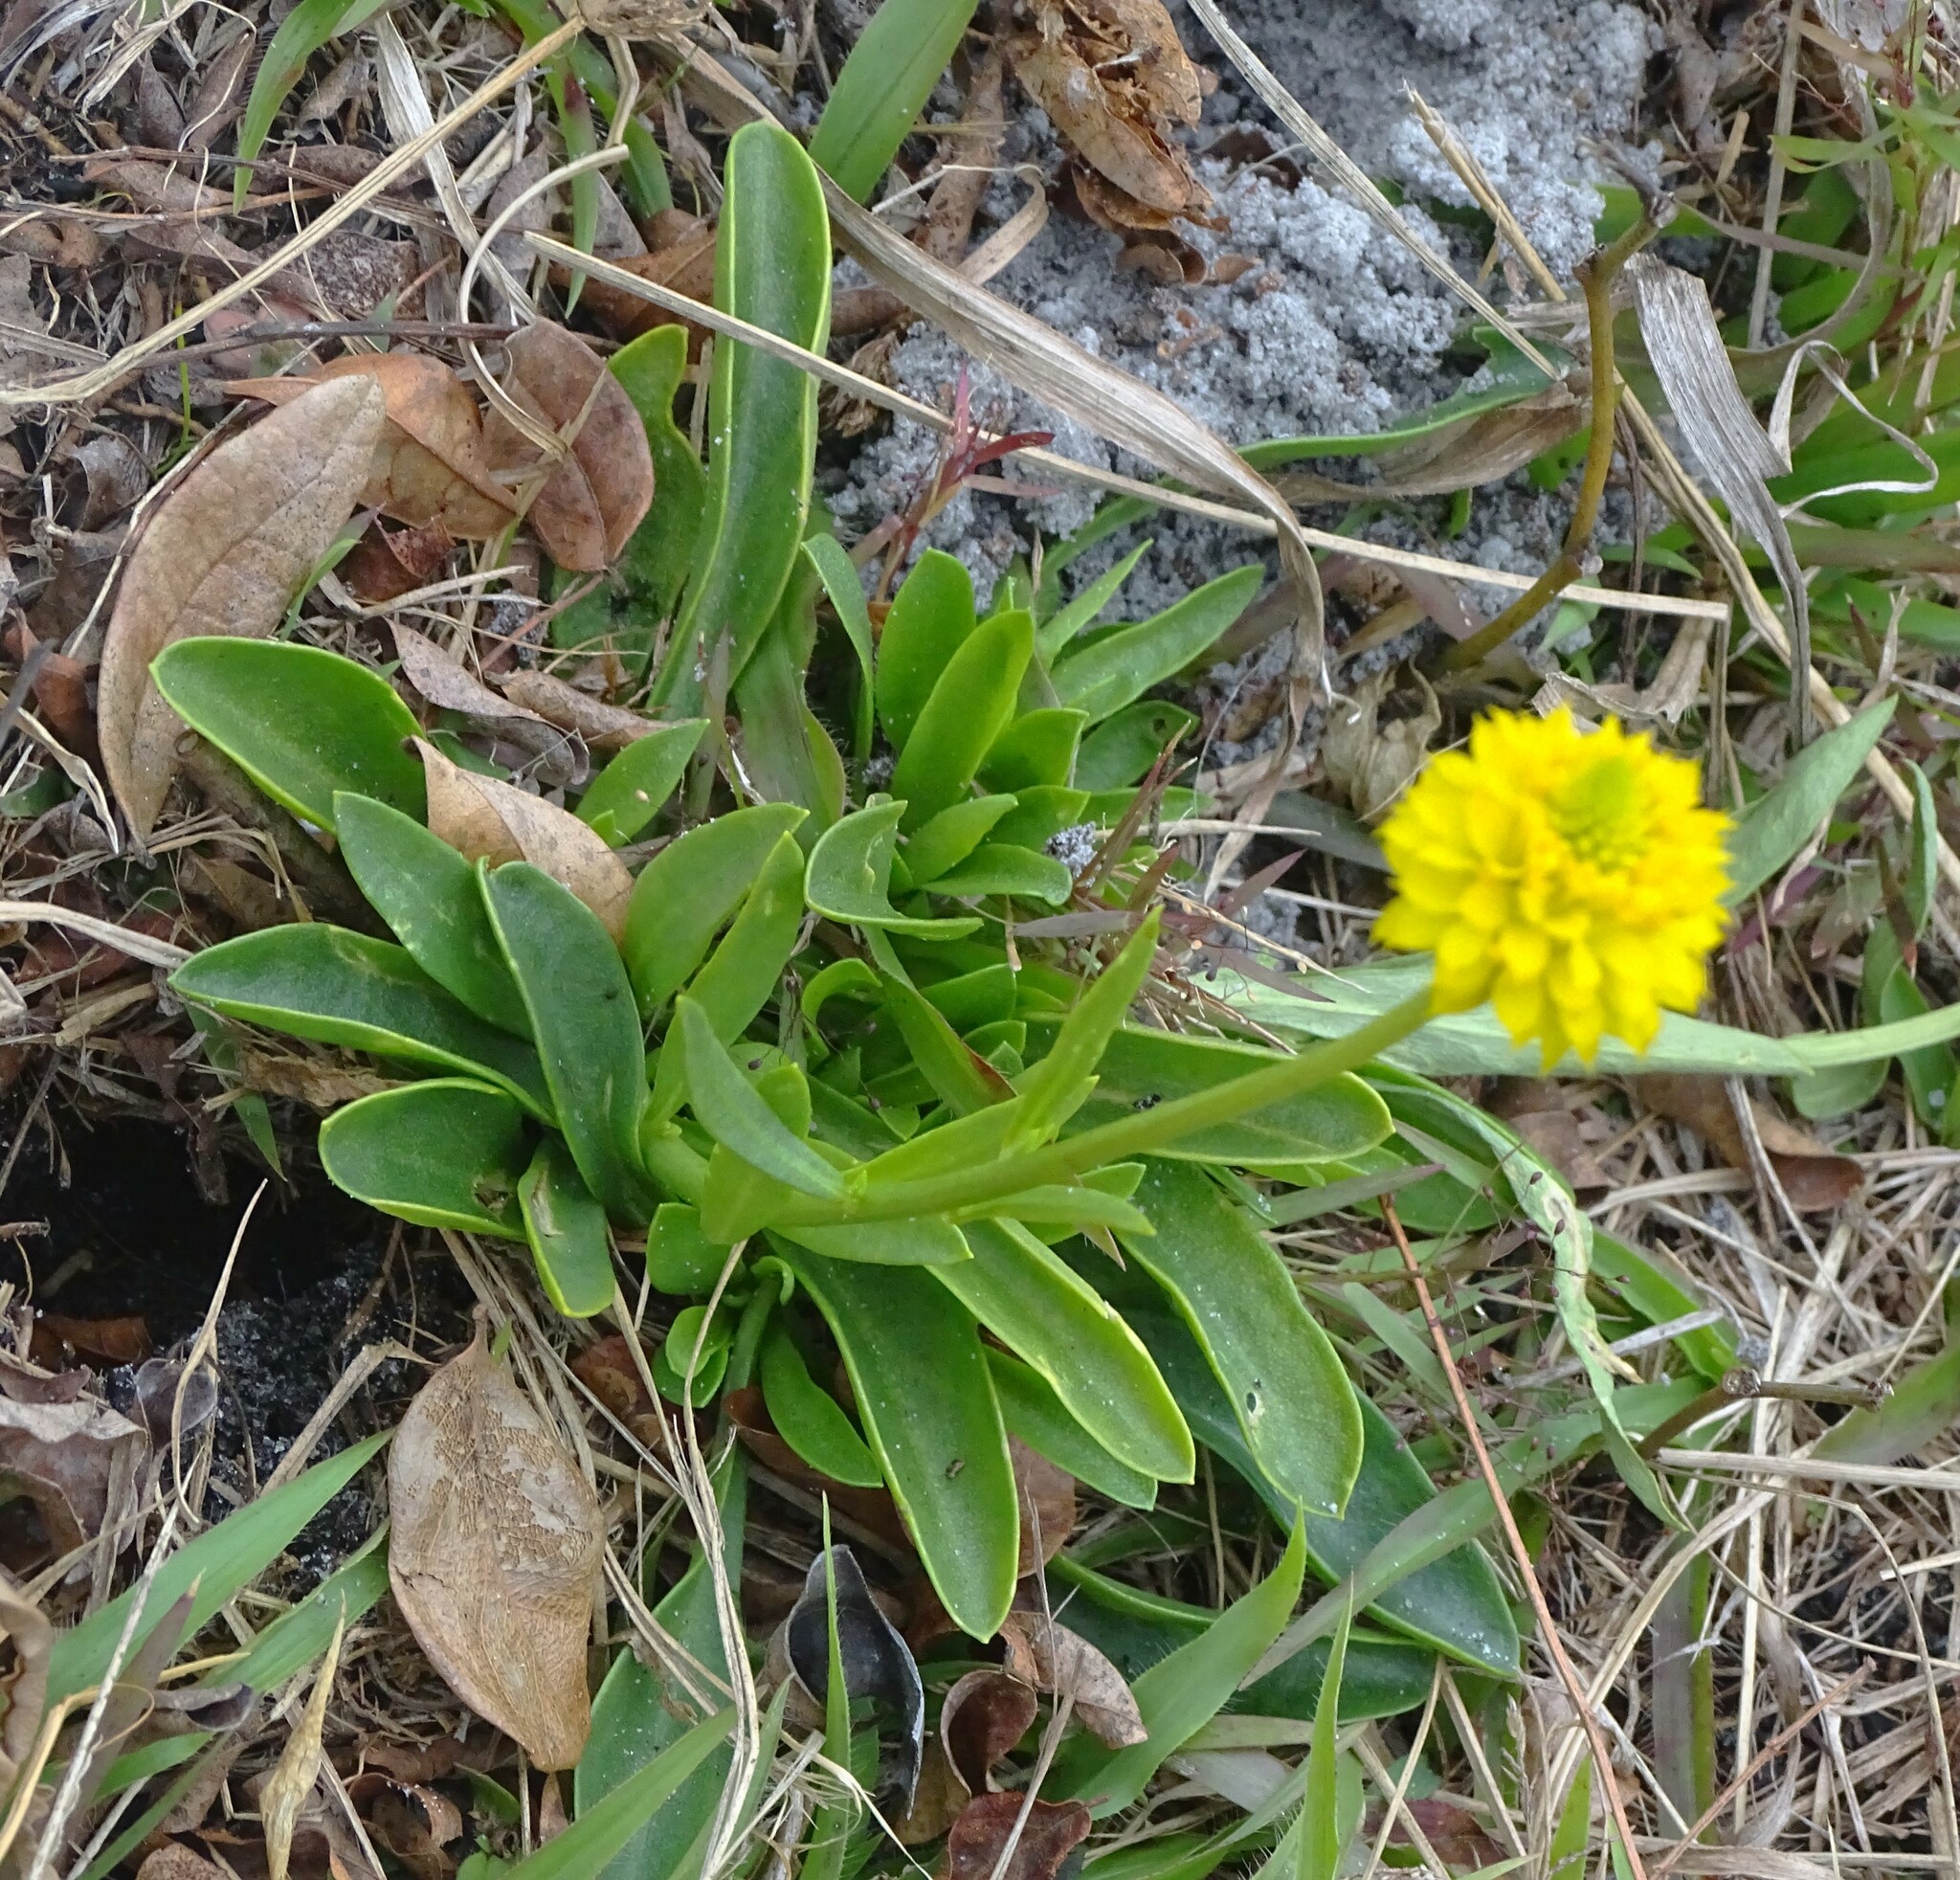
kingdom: Plantae
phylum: Tracheophyta
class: Magnoliopsida
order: Fabales
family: Polygalaceae
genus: Polygala
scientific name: Polygala rugelii
